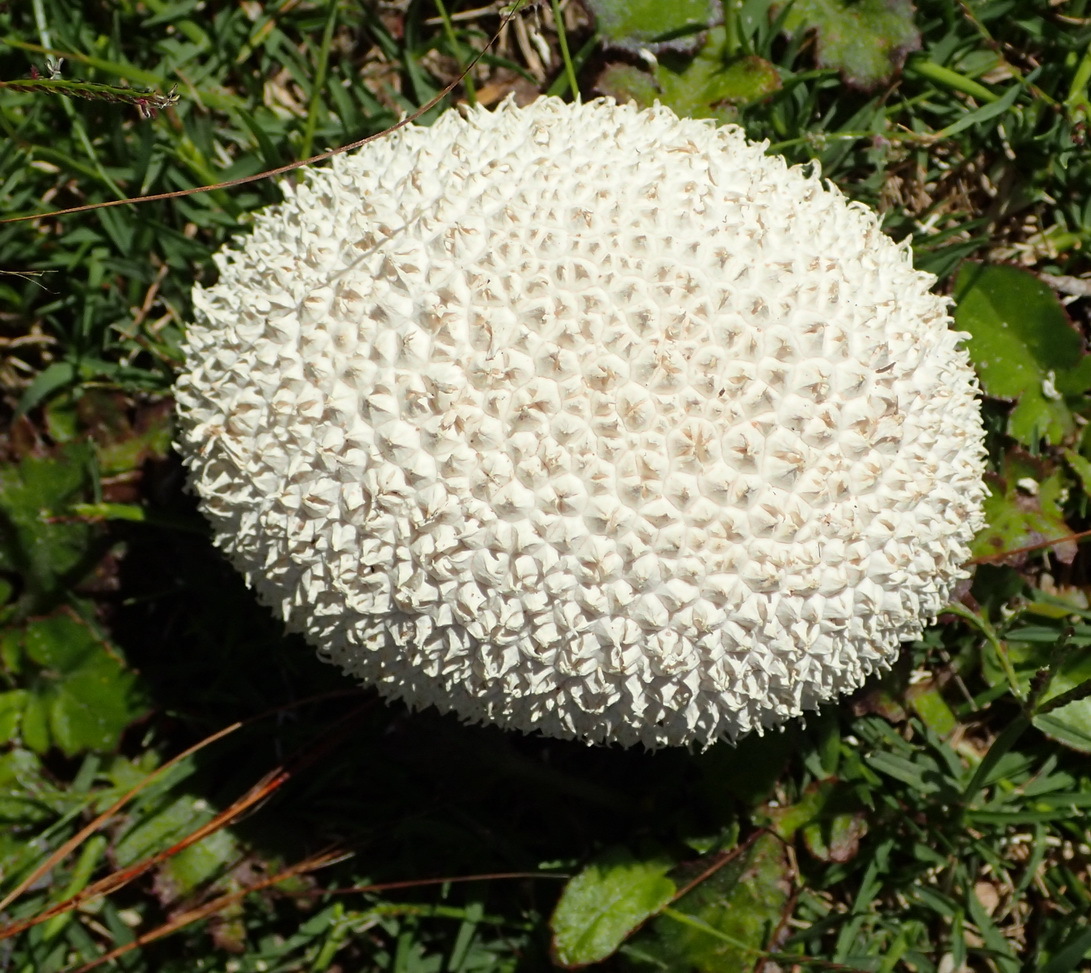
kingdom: Fungi
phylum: Basidiomycota
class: Agaricomycetes
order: Agaricales
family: Agaricaceae
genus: Lycoperdon
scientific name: Lycoperdon marginatum
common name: Peeling puffball
